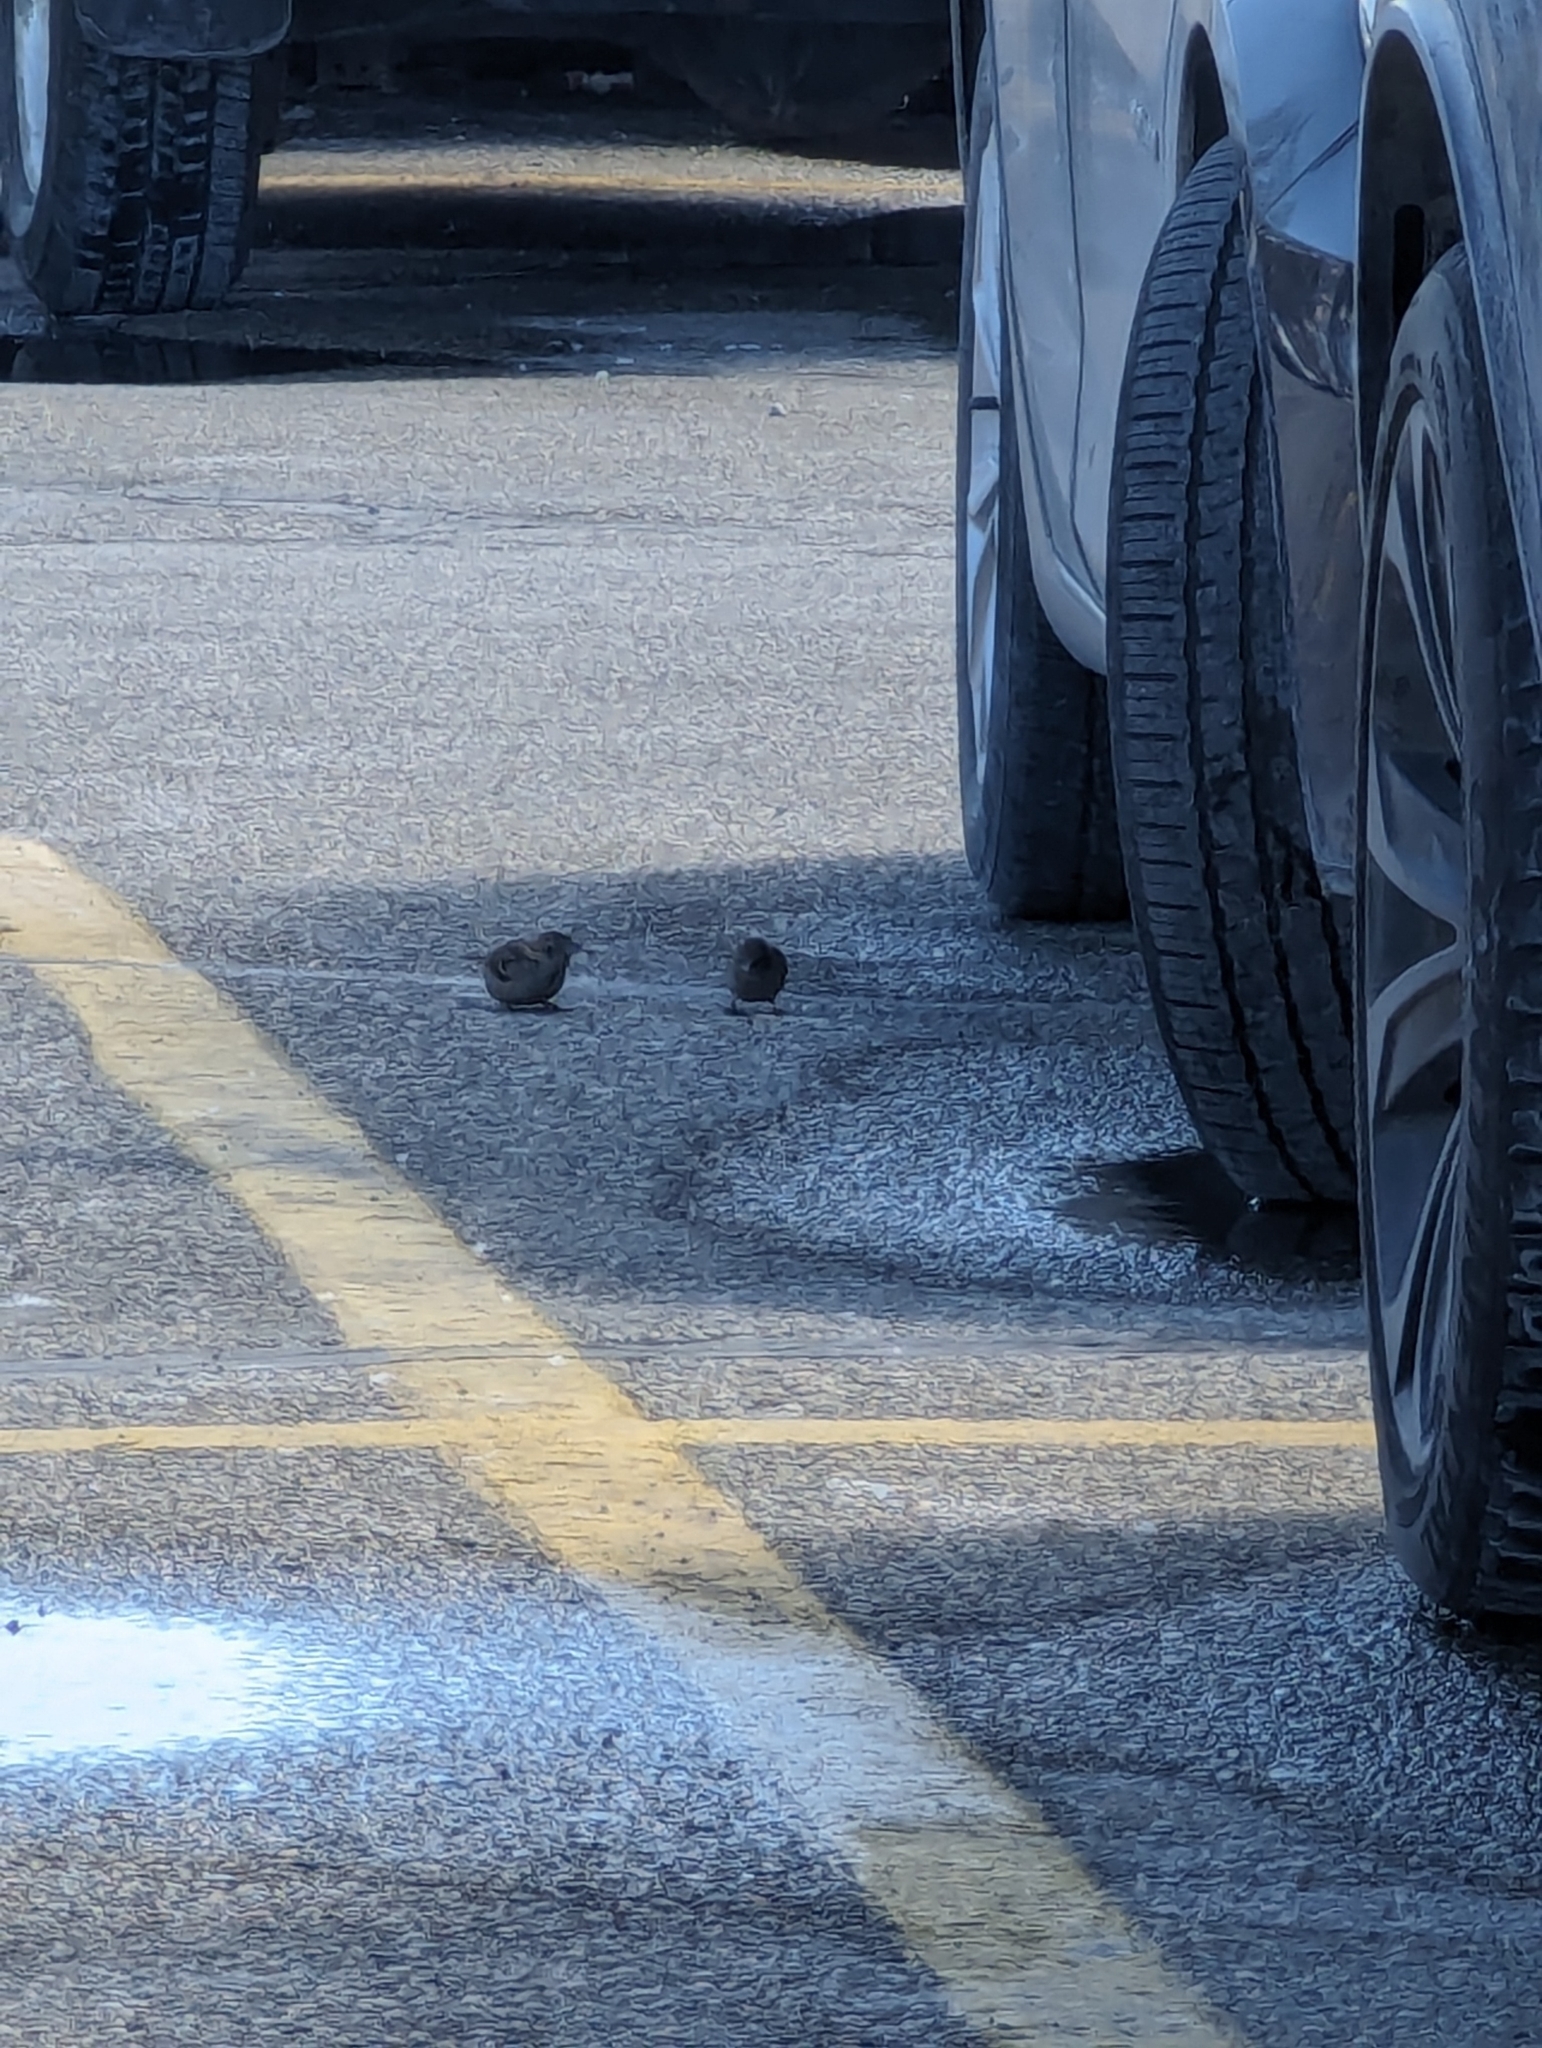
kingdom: Animalia
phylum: Chordata
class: Aves
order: Passeriformes
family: Passeridae
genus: Passer
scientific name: Passer domesticus
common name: House sparrow
